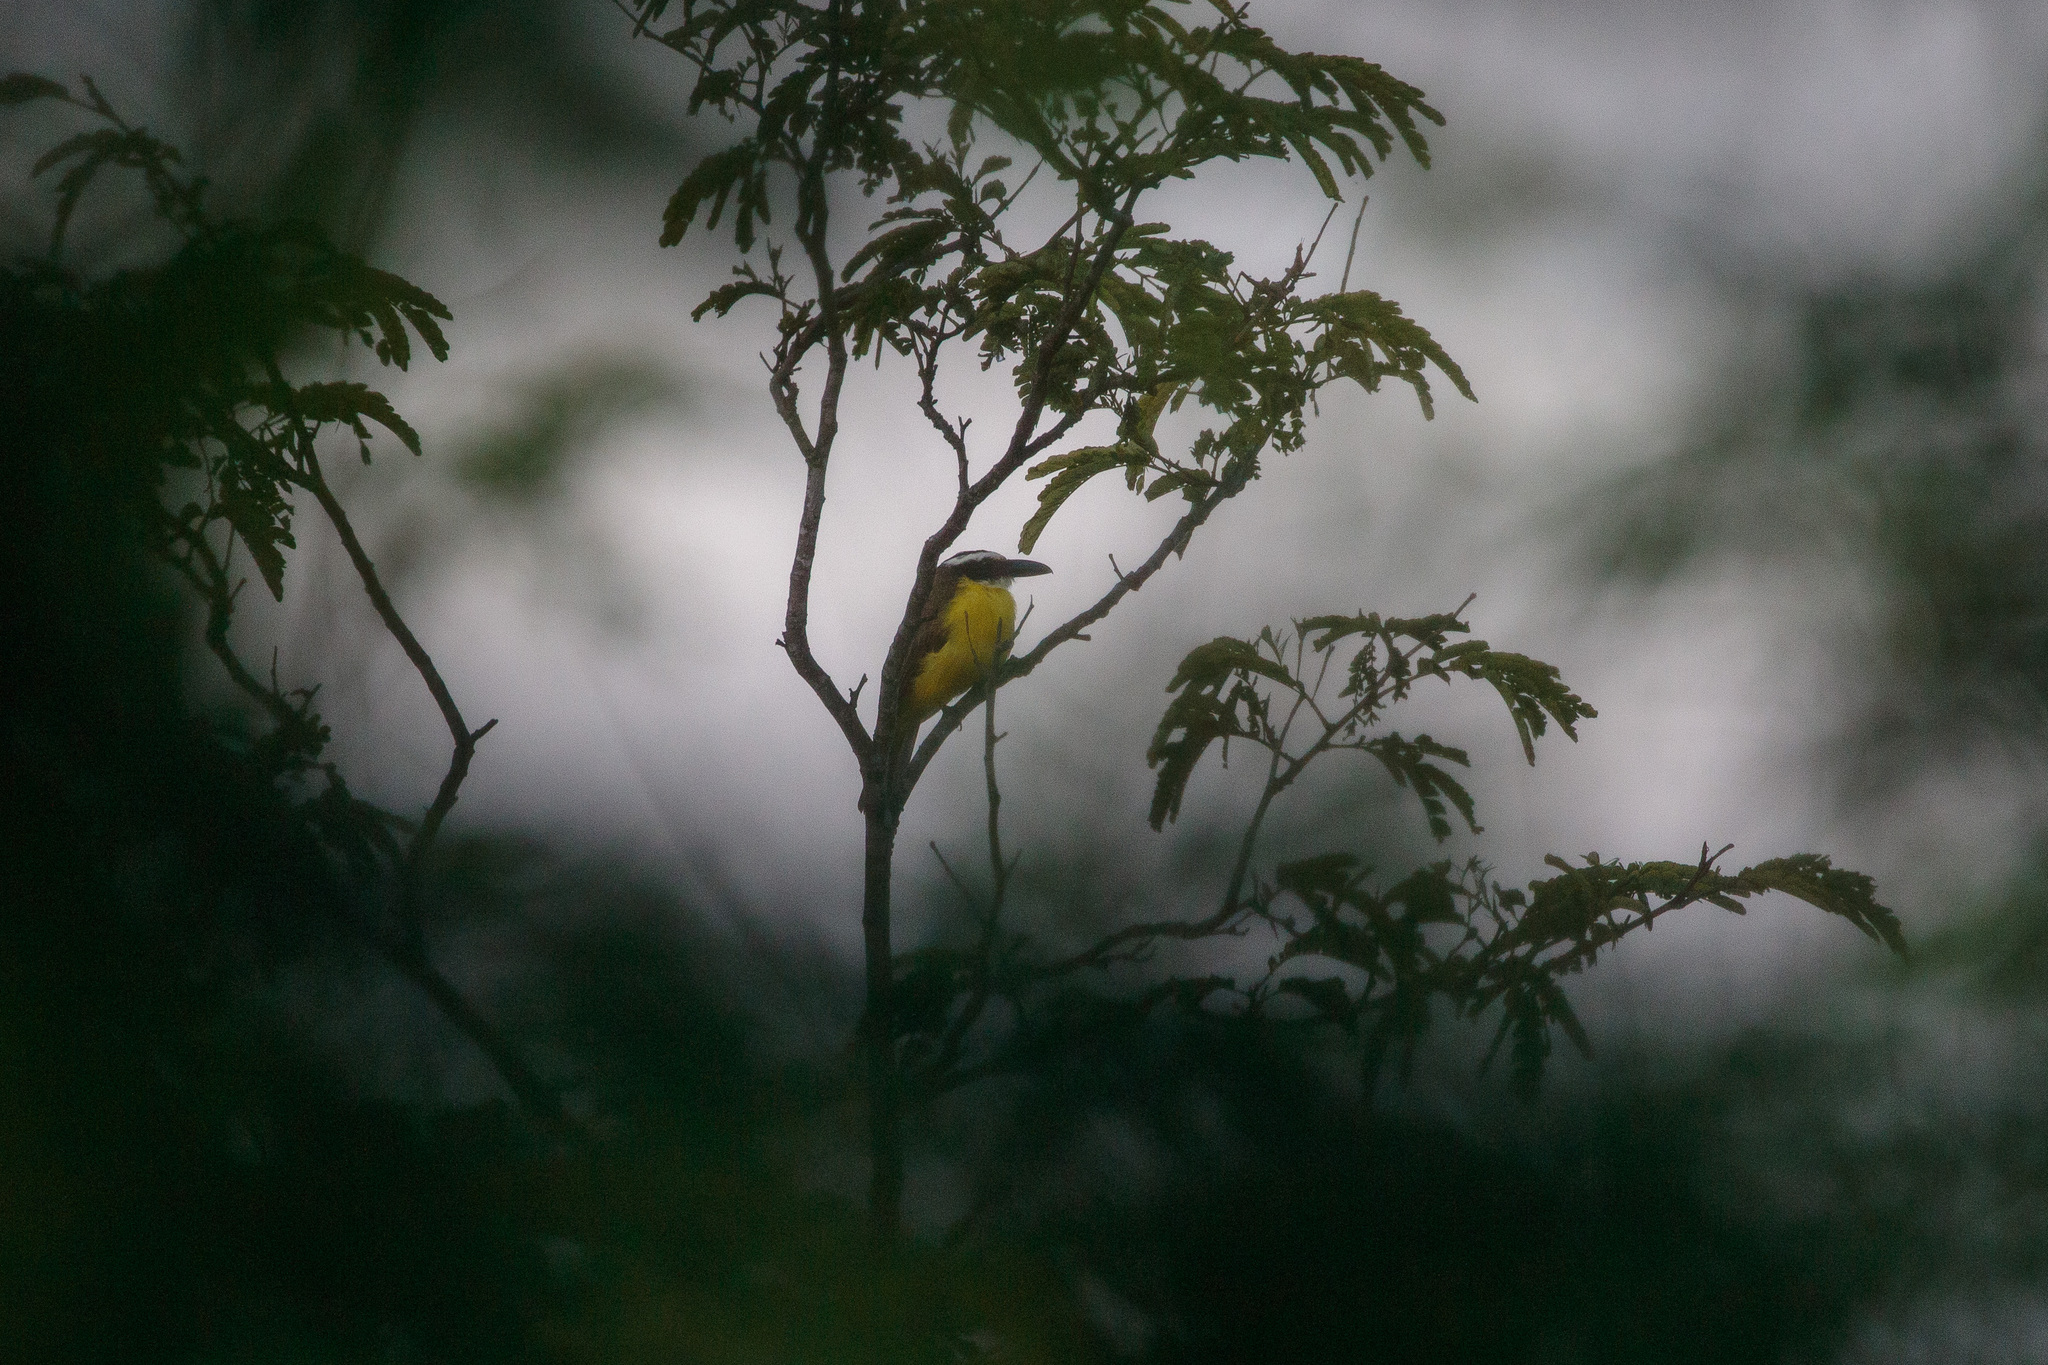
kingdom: Animalia
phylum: Chordata
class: Aves
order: Passeriformes
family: Tyrannidae
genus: Megarynchus
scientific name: Megarynchus pitangua
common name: Boat-billed flycatcher
